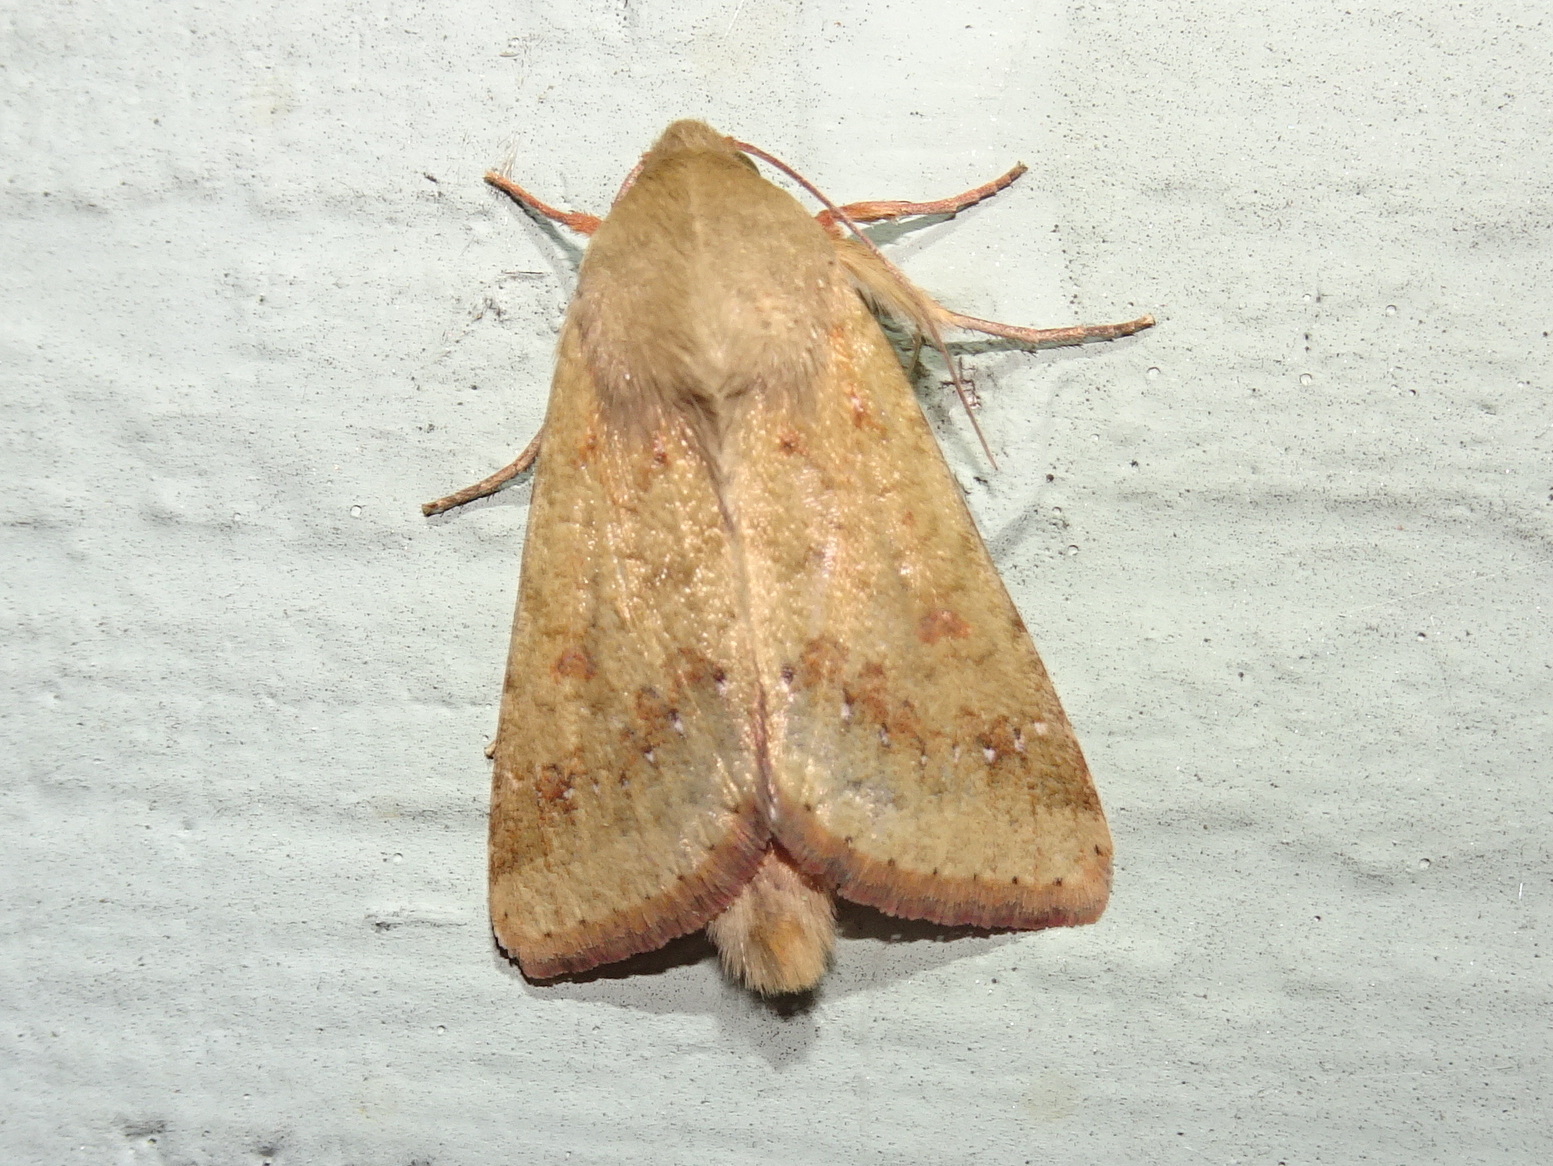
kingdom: Animalia
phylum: Arthropoda
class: Insecta
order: Lepidoptera
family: Noctuidae
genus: Helicoverpa
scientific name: Helicoverpa zea
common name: Bollworm
